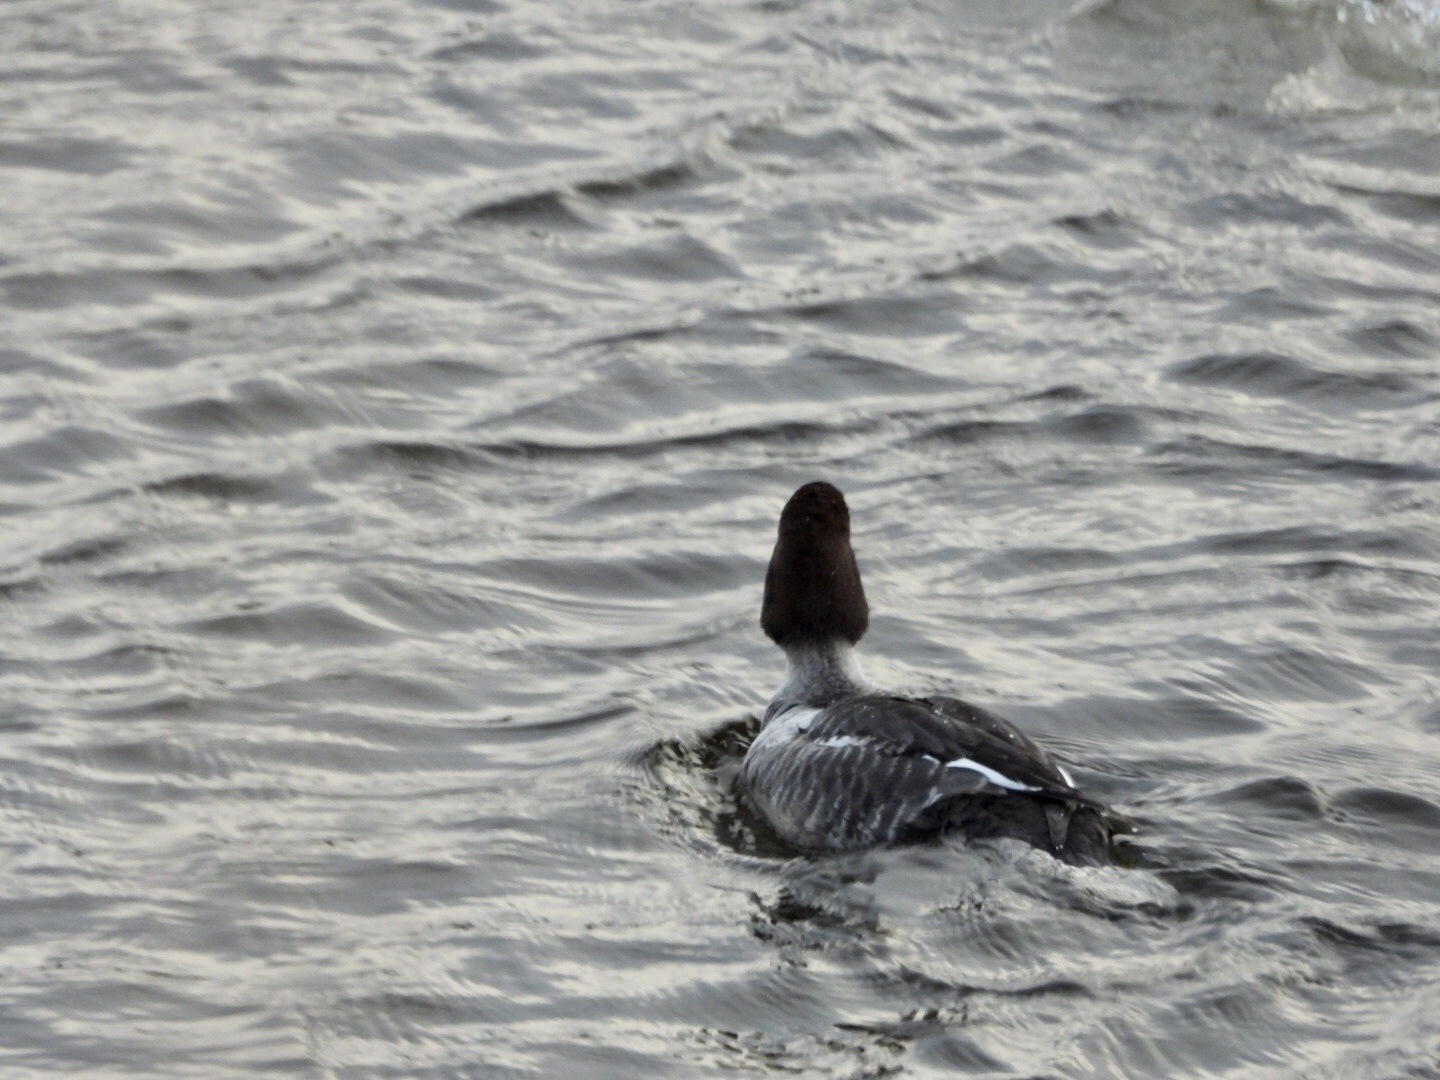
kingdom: Animalia
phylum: Chordata
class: Aves
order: Anseriformes
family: Anatidae
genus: Bucephala
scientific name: Bucephala clangula
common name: Common goldeneye
